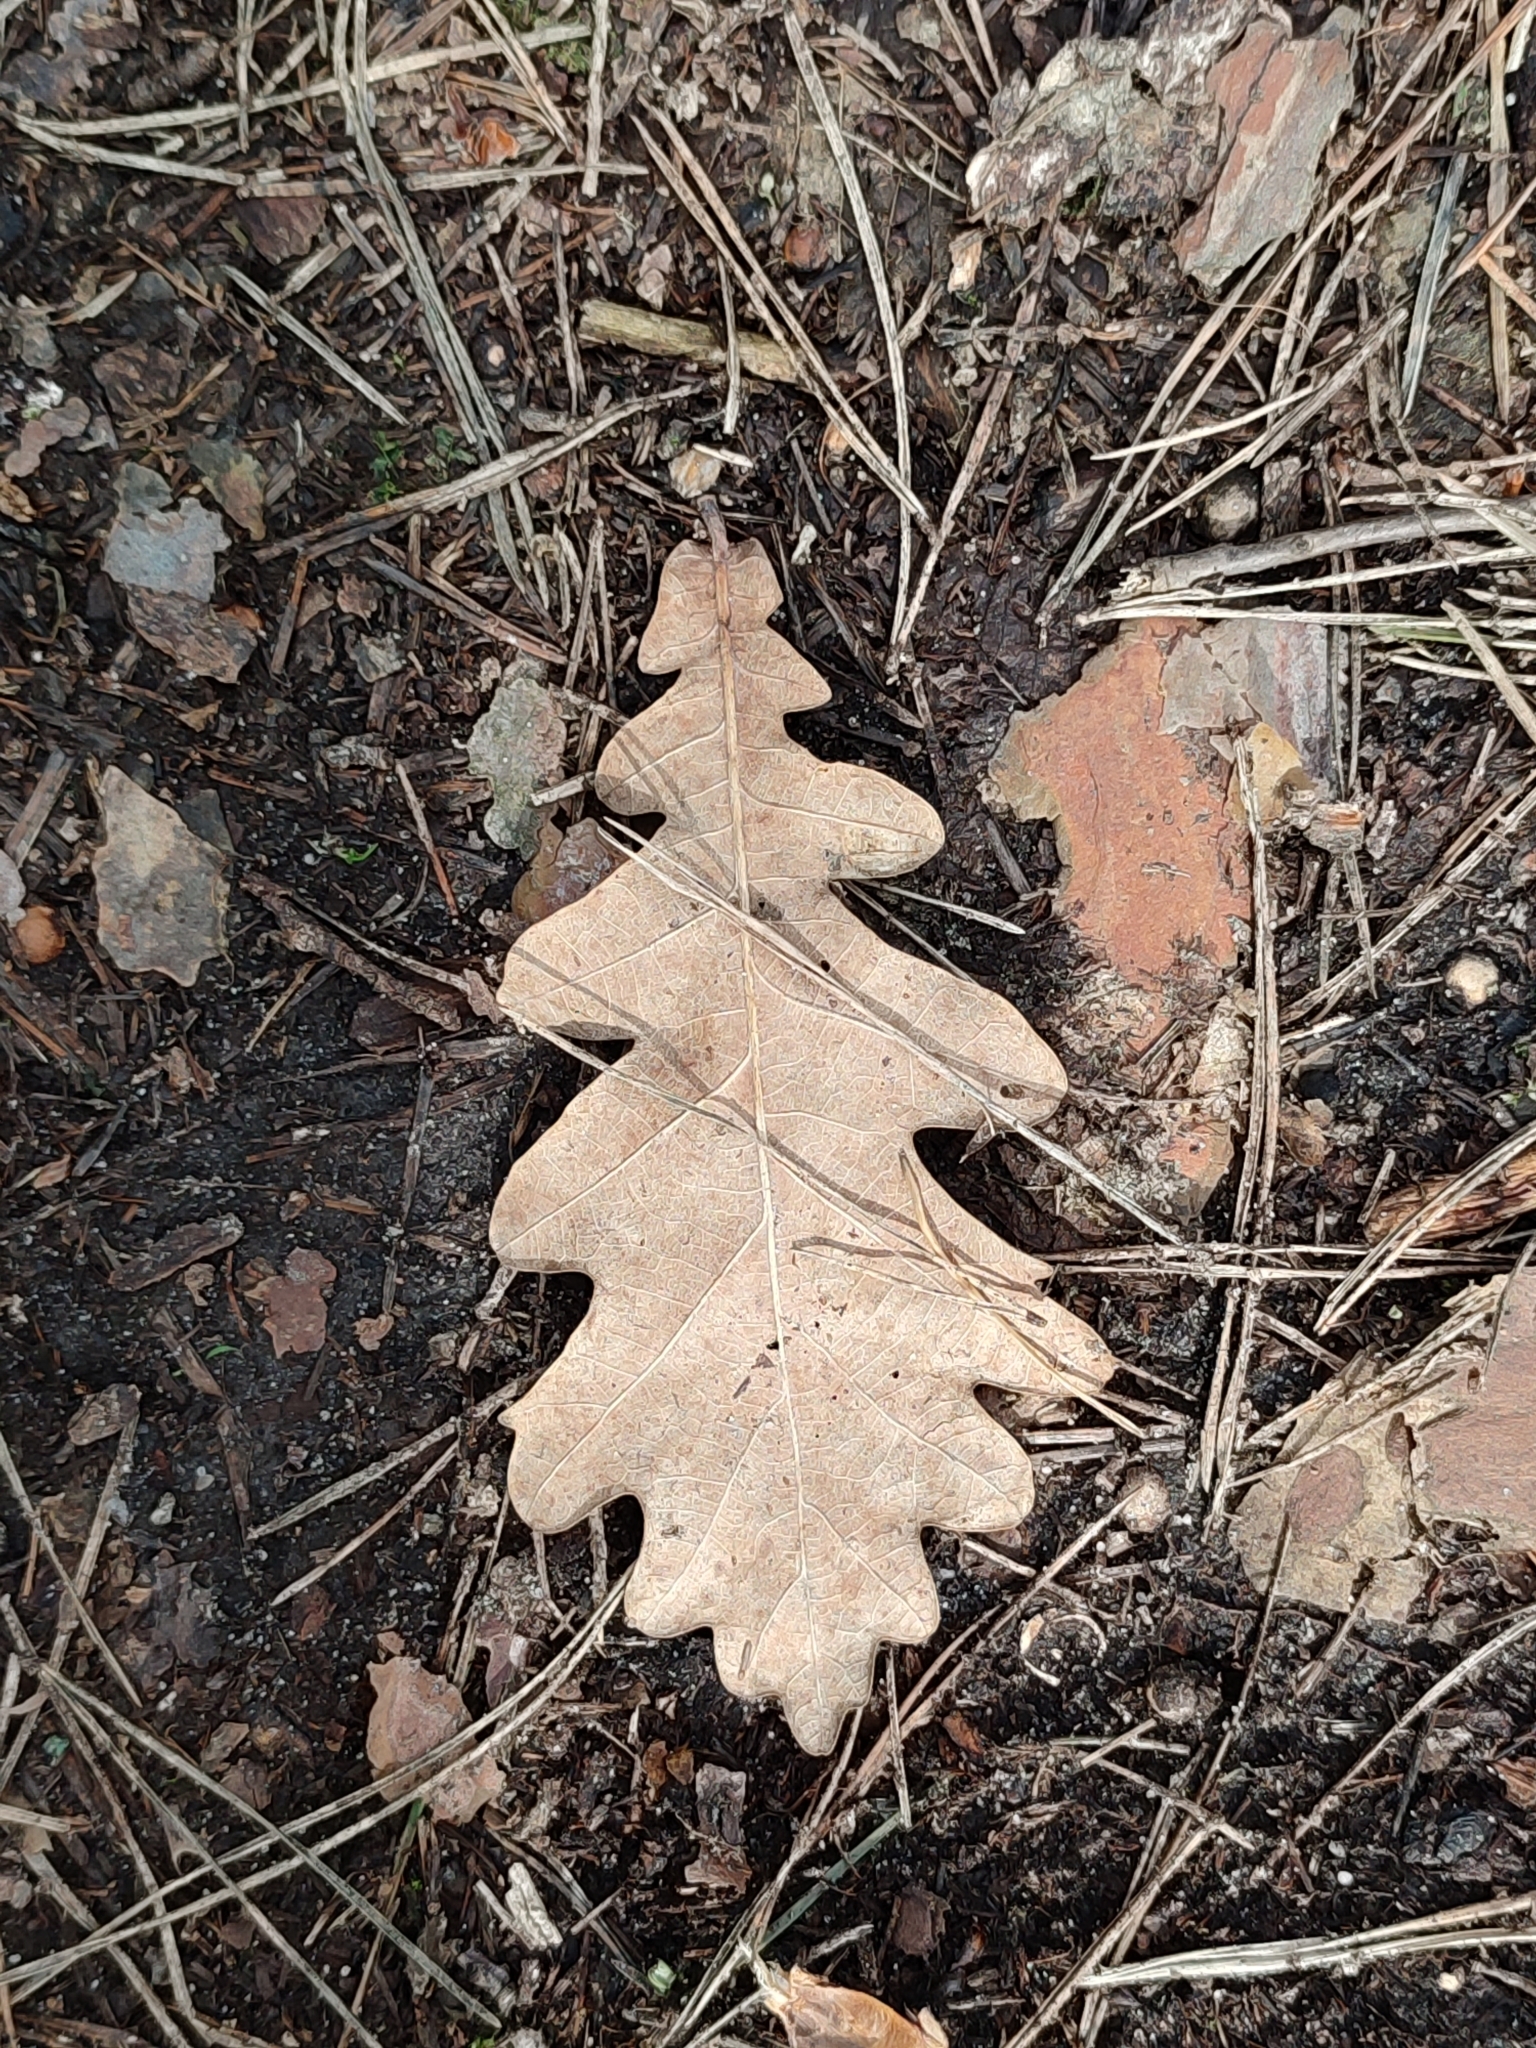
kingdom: Plantae
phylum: Tracheophyta
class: Magnoliopsida
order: Fagales
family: Fagaceae
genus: Quercus
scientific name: Quercus robur
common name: Pedunculate oak
